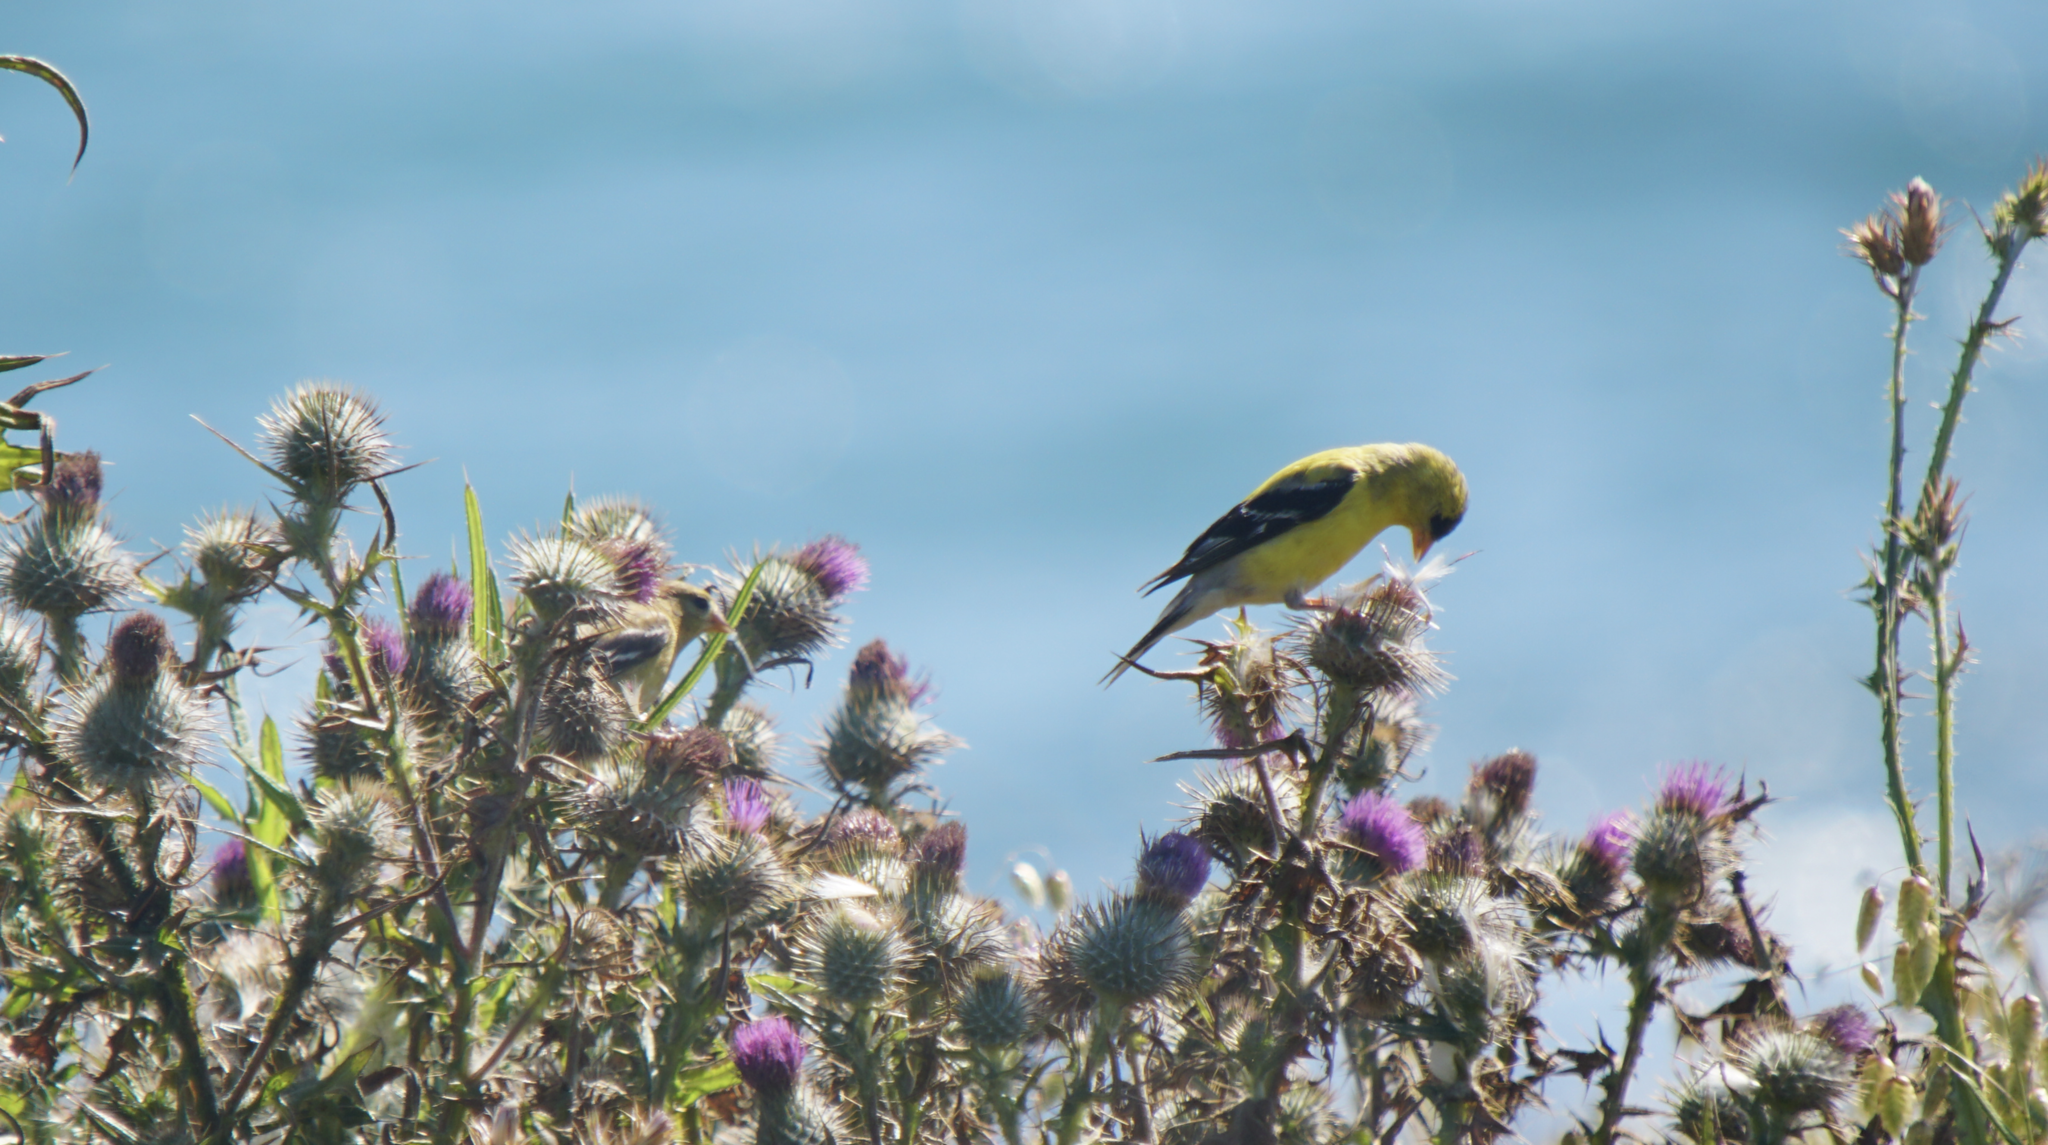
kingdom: Animalia
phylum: Chordata
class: Aves
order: Passeriformes
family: Fringillidae
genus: Spinus
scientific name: Spinus tristis
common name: American goldfinch
